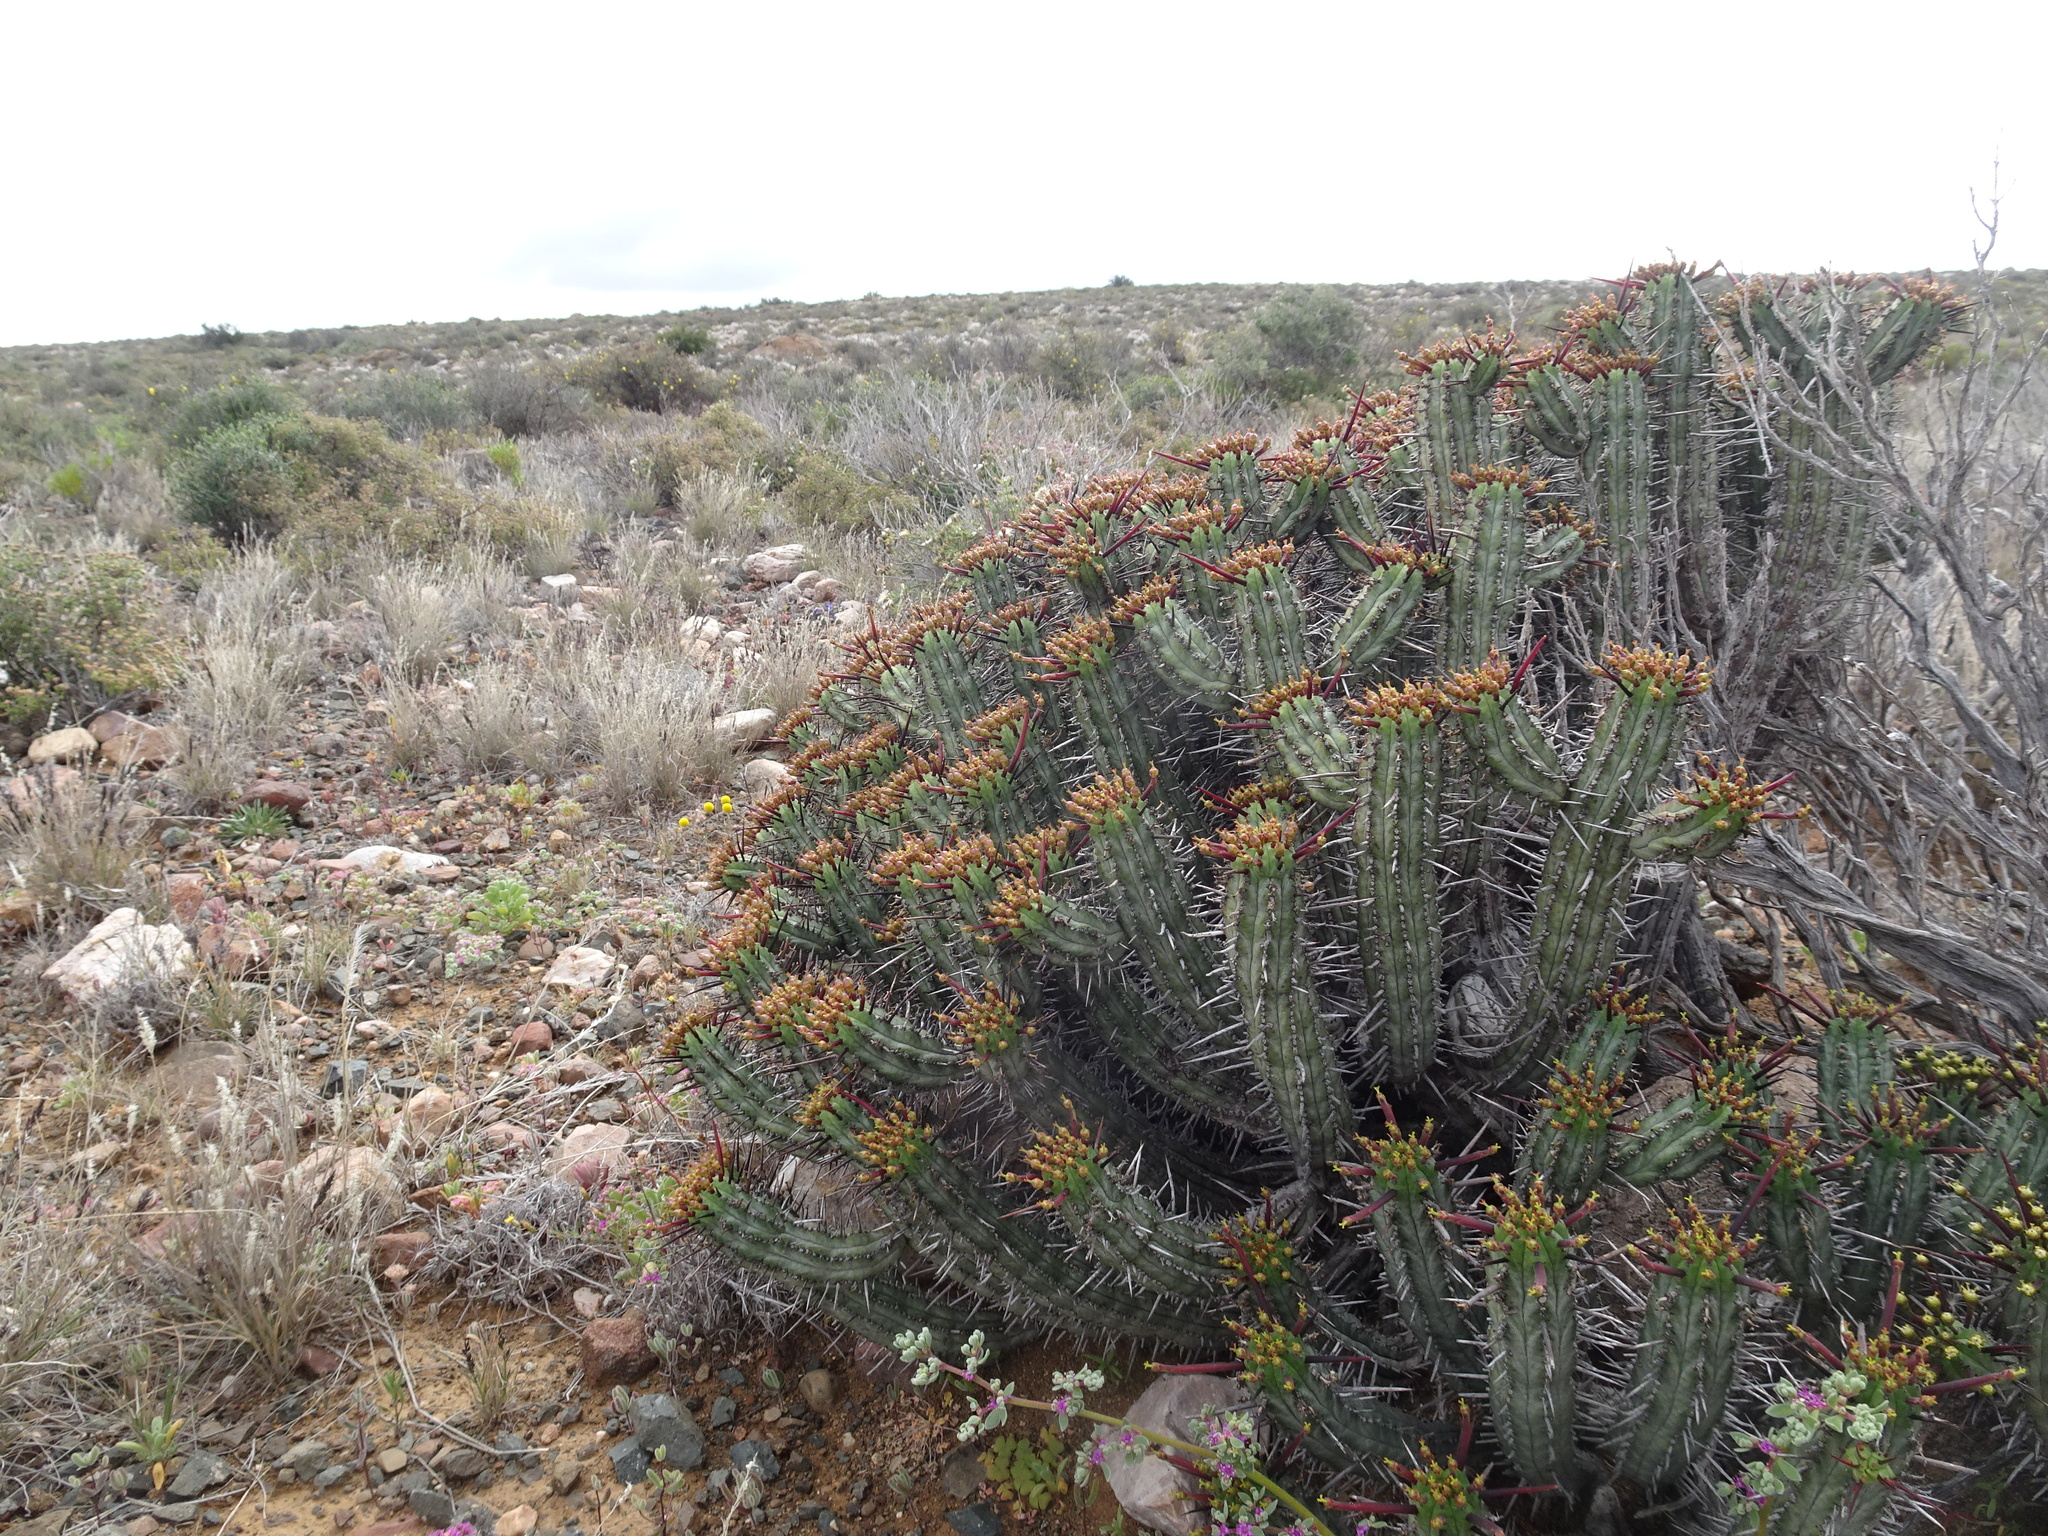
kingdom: Plantae
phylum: Tracheophyta
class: Magnoliopsida
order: Malpighiales
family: Euphorbiaceae
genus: Euphorbia
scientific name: Euphorbia heptagona
